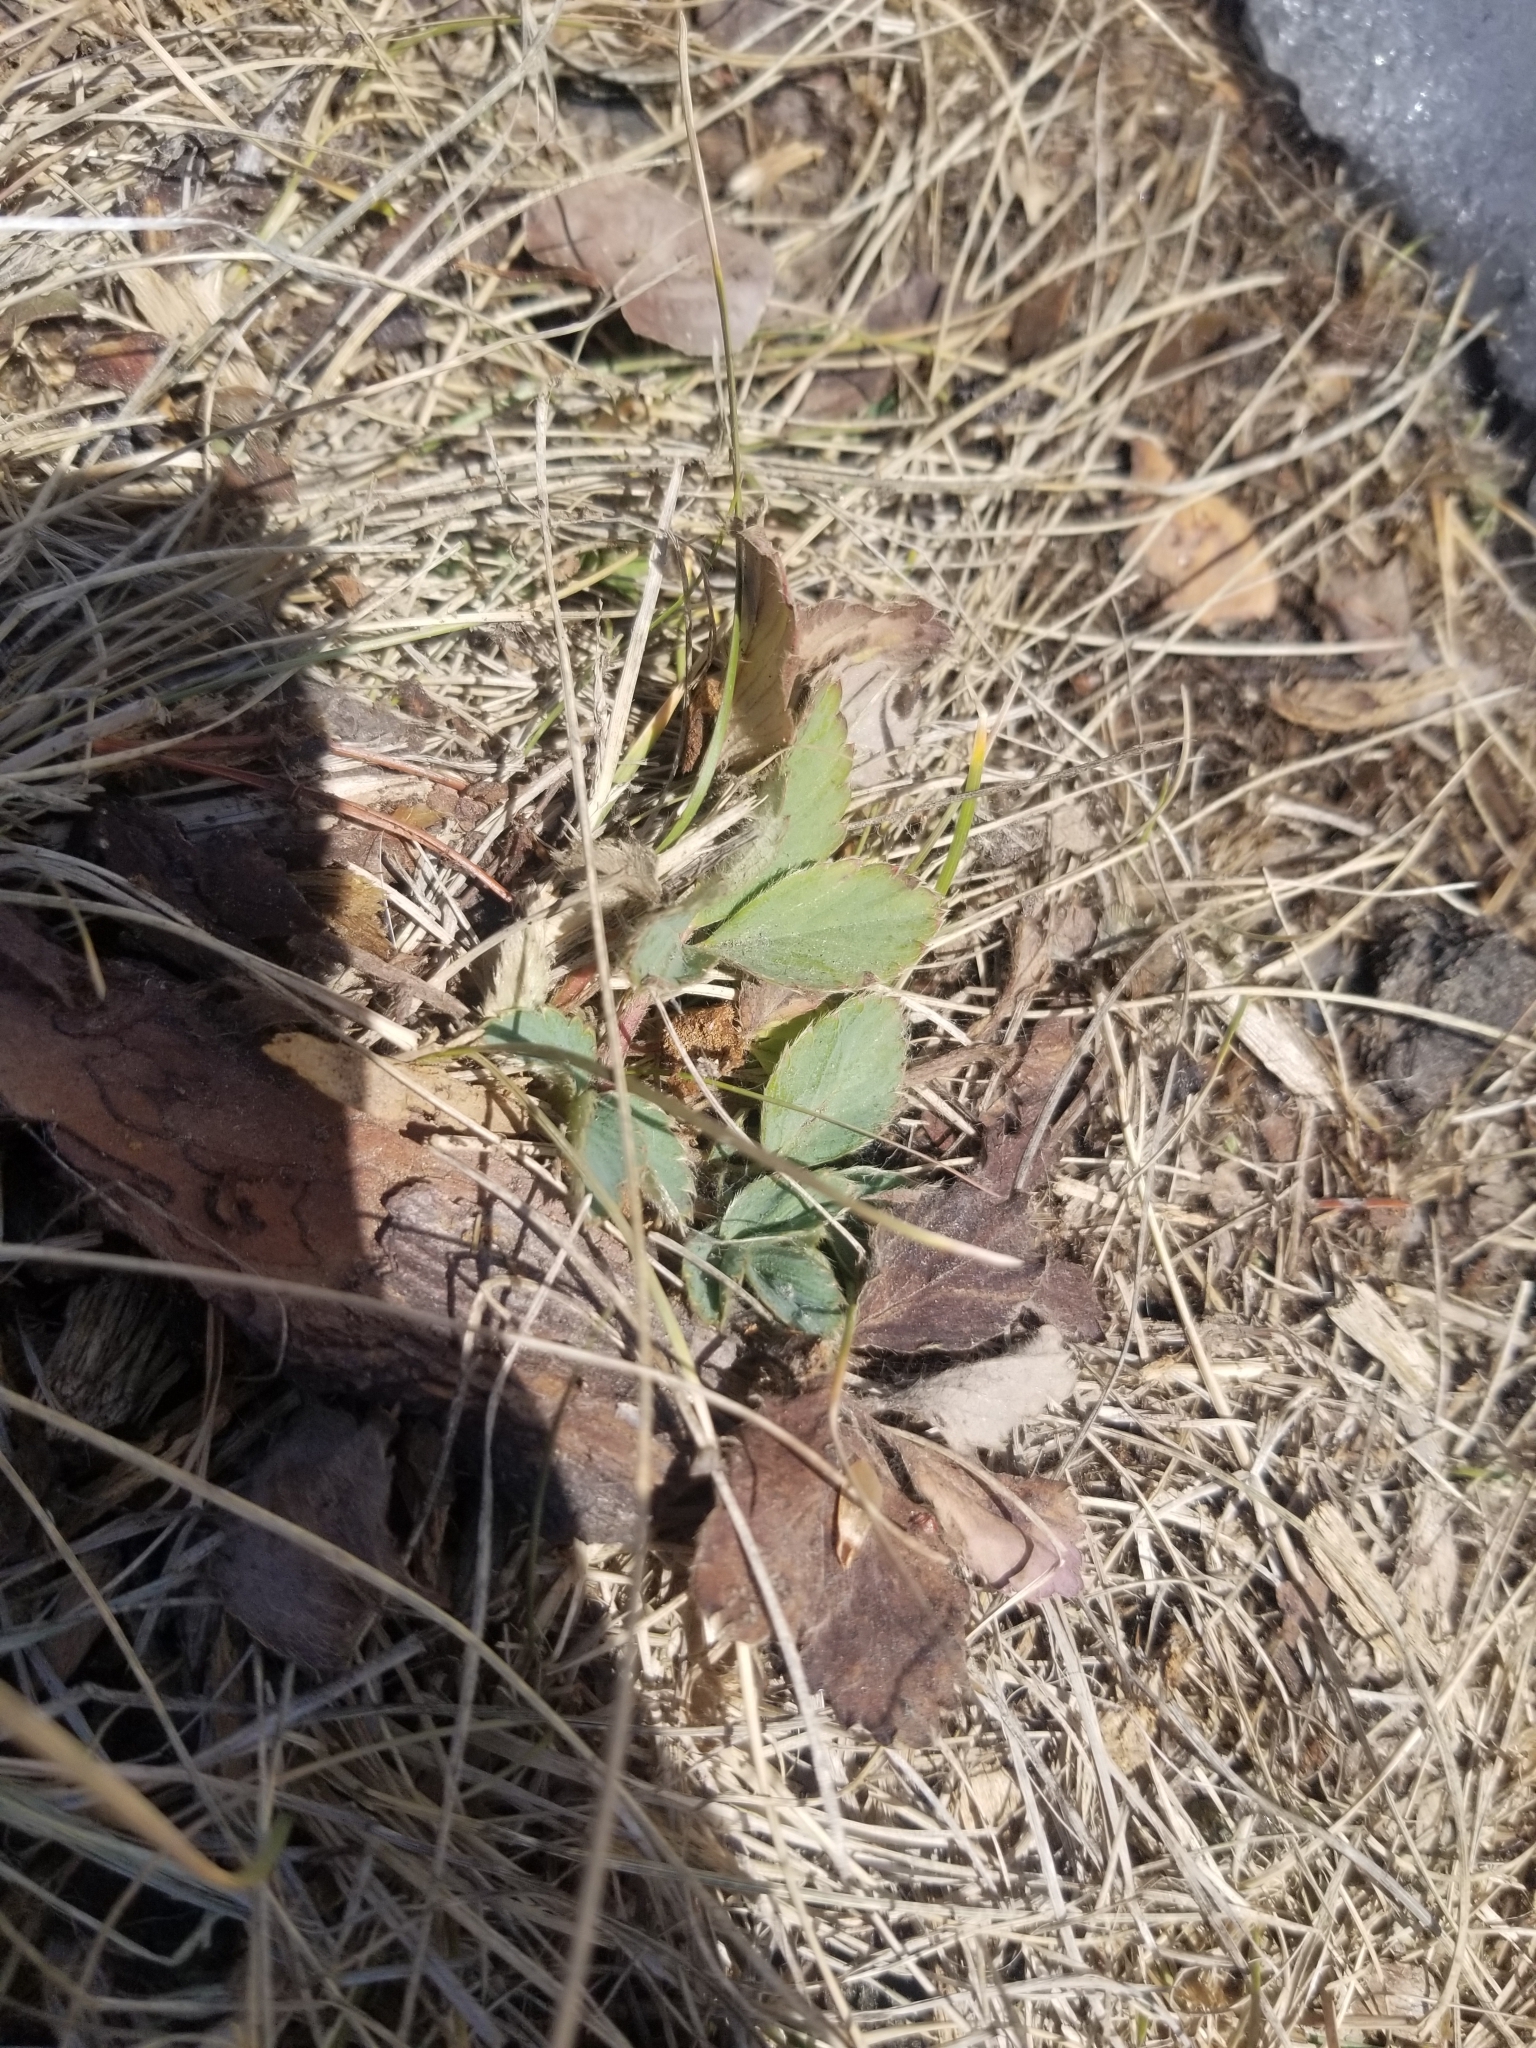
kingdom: Plantae
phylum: Tracheophyta
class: Magnoliopsida
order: Rosales
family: Rosaceae
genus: Fragaria
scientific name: Fragaria virginiana
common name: Thickleaved wild strawberry
